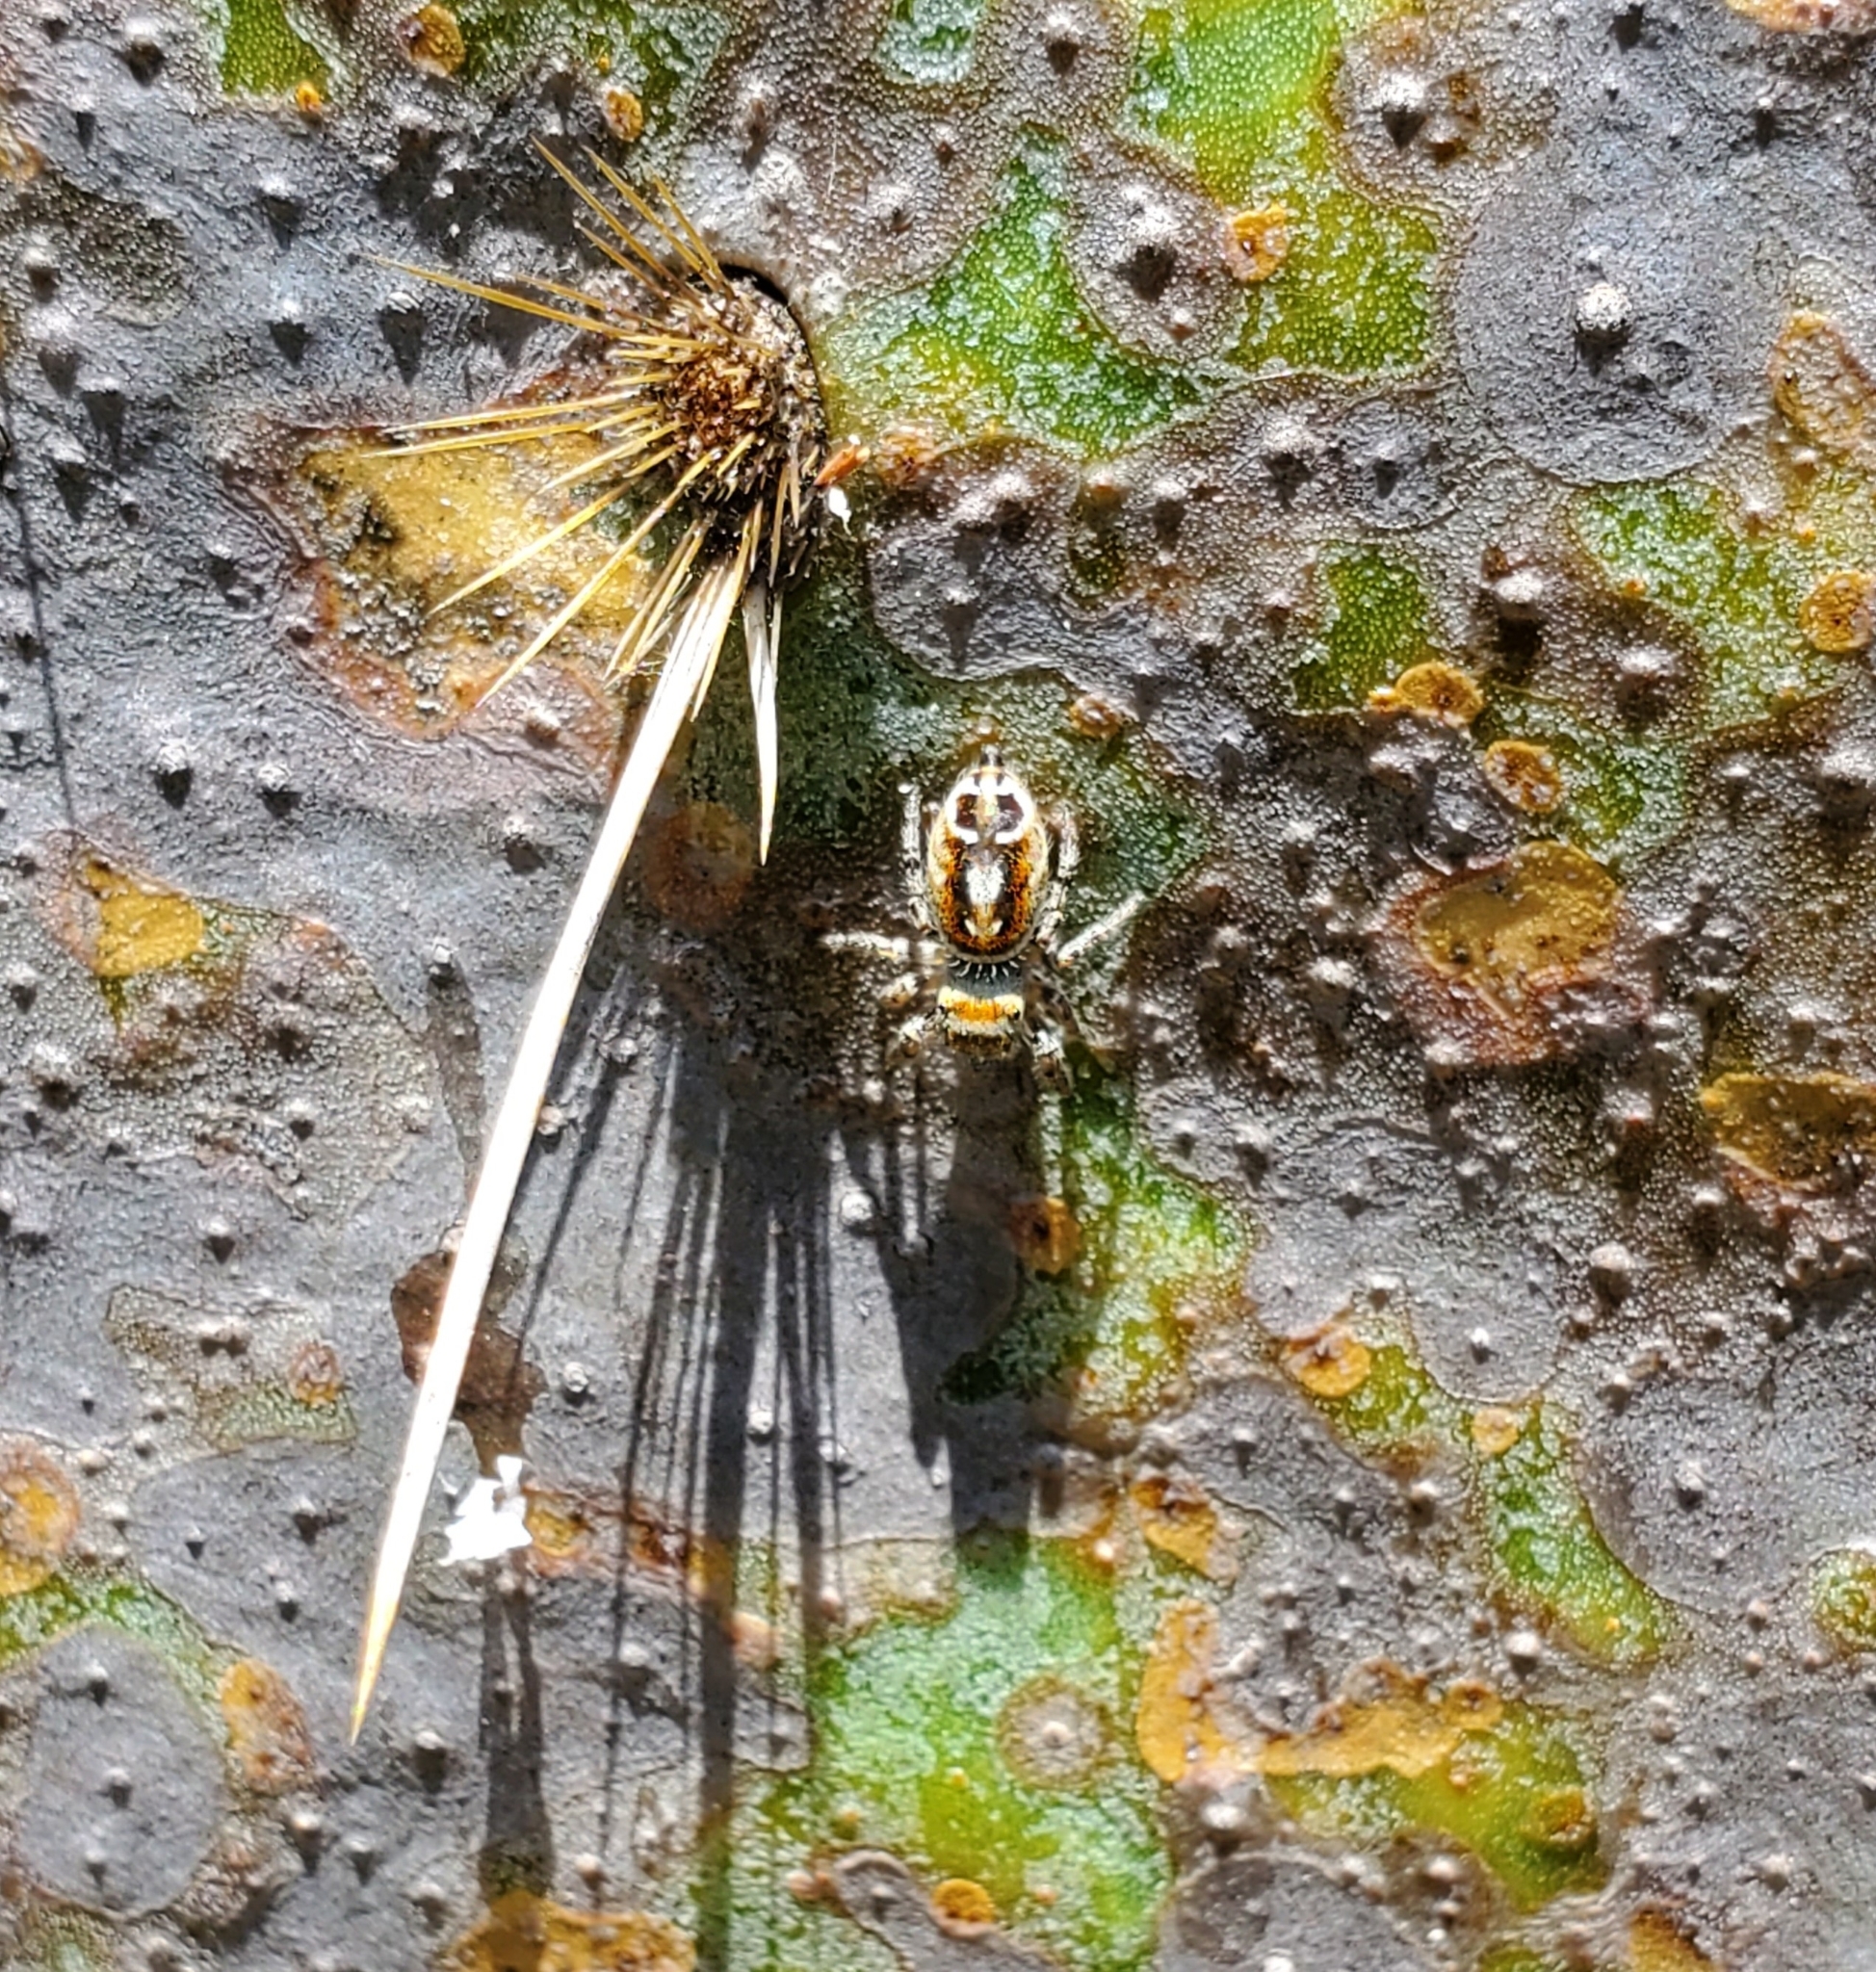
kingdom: Animalia
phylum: Arthropoda
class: Arachnida
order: Araneae
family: Salticidae
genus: Phidippus
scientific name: Phidippus arizonensis
